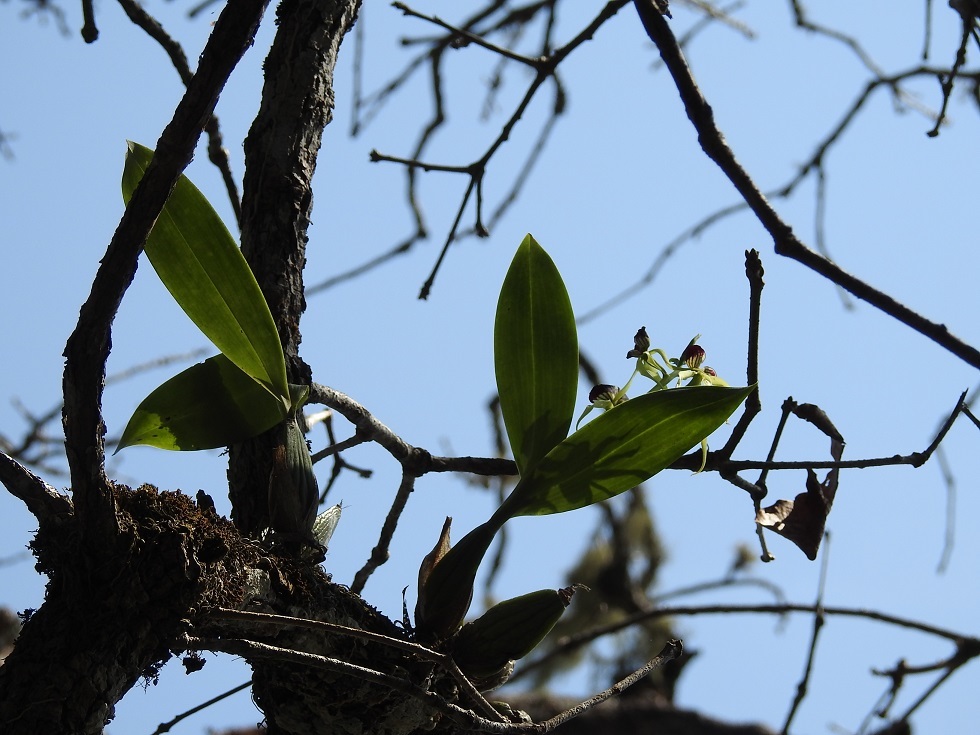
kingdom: Plantae
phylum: Tracheophyta
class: Liliopsida
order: Asparagales
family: Orchidaceae
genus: Prosthechea
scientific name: Prosthechea cochleata
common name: Clamshell orchid
